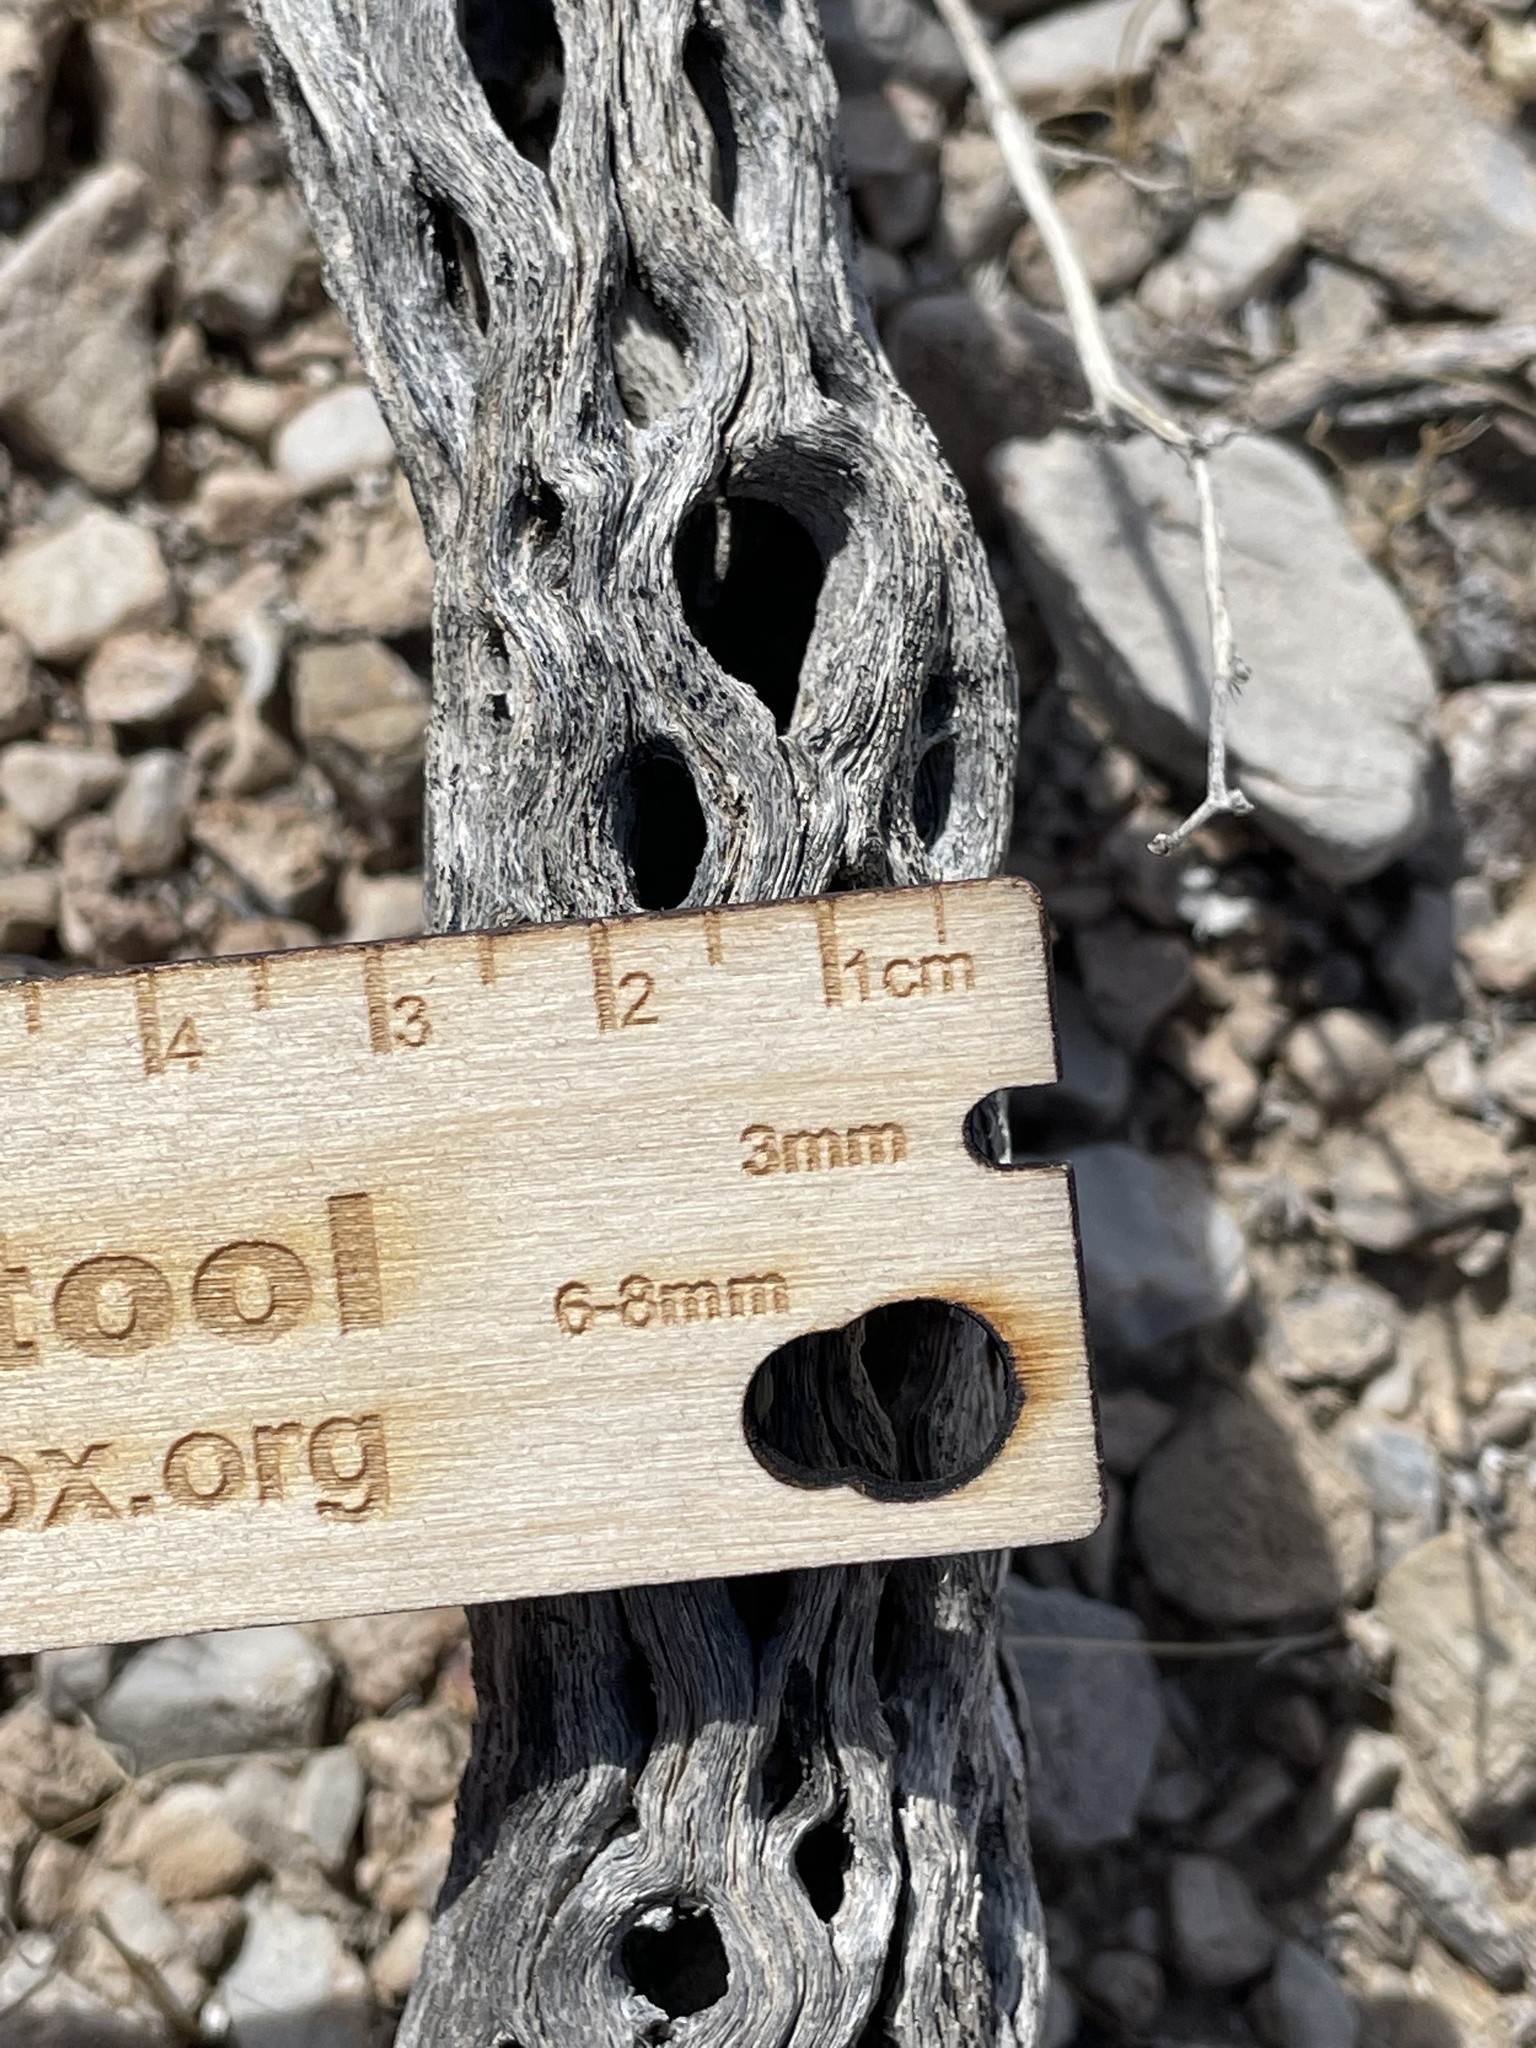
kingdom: Plantae
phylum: Tracheophyta
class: Magnoliopsida
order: Caryophyllales
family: Cactaceae
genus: Cylindropuntia
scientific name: Cylindropuntia acanthocarpa
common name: Buckhorn cholla
